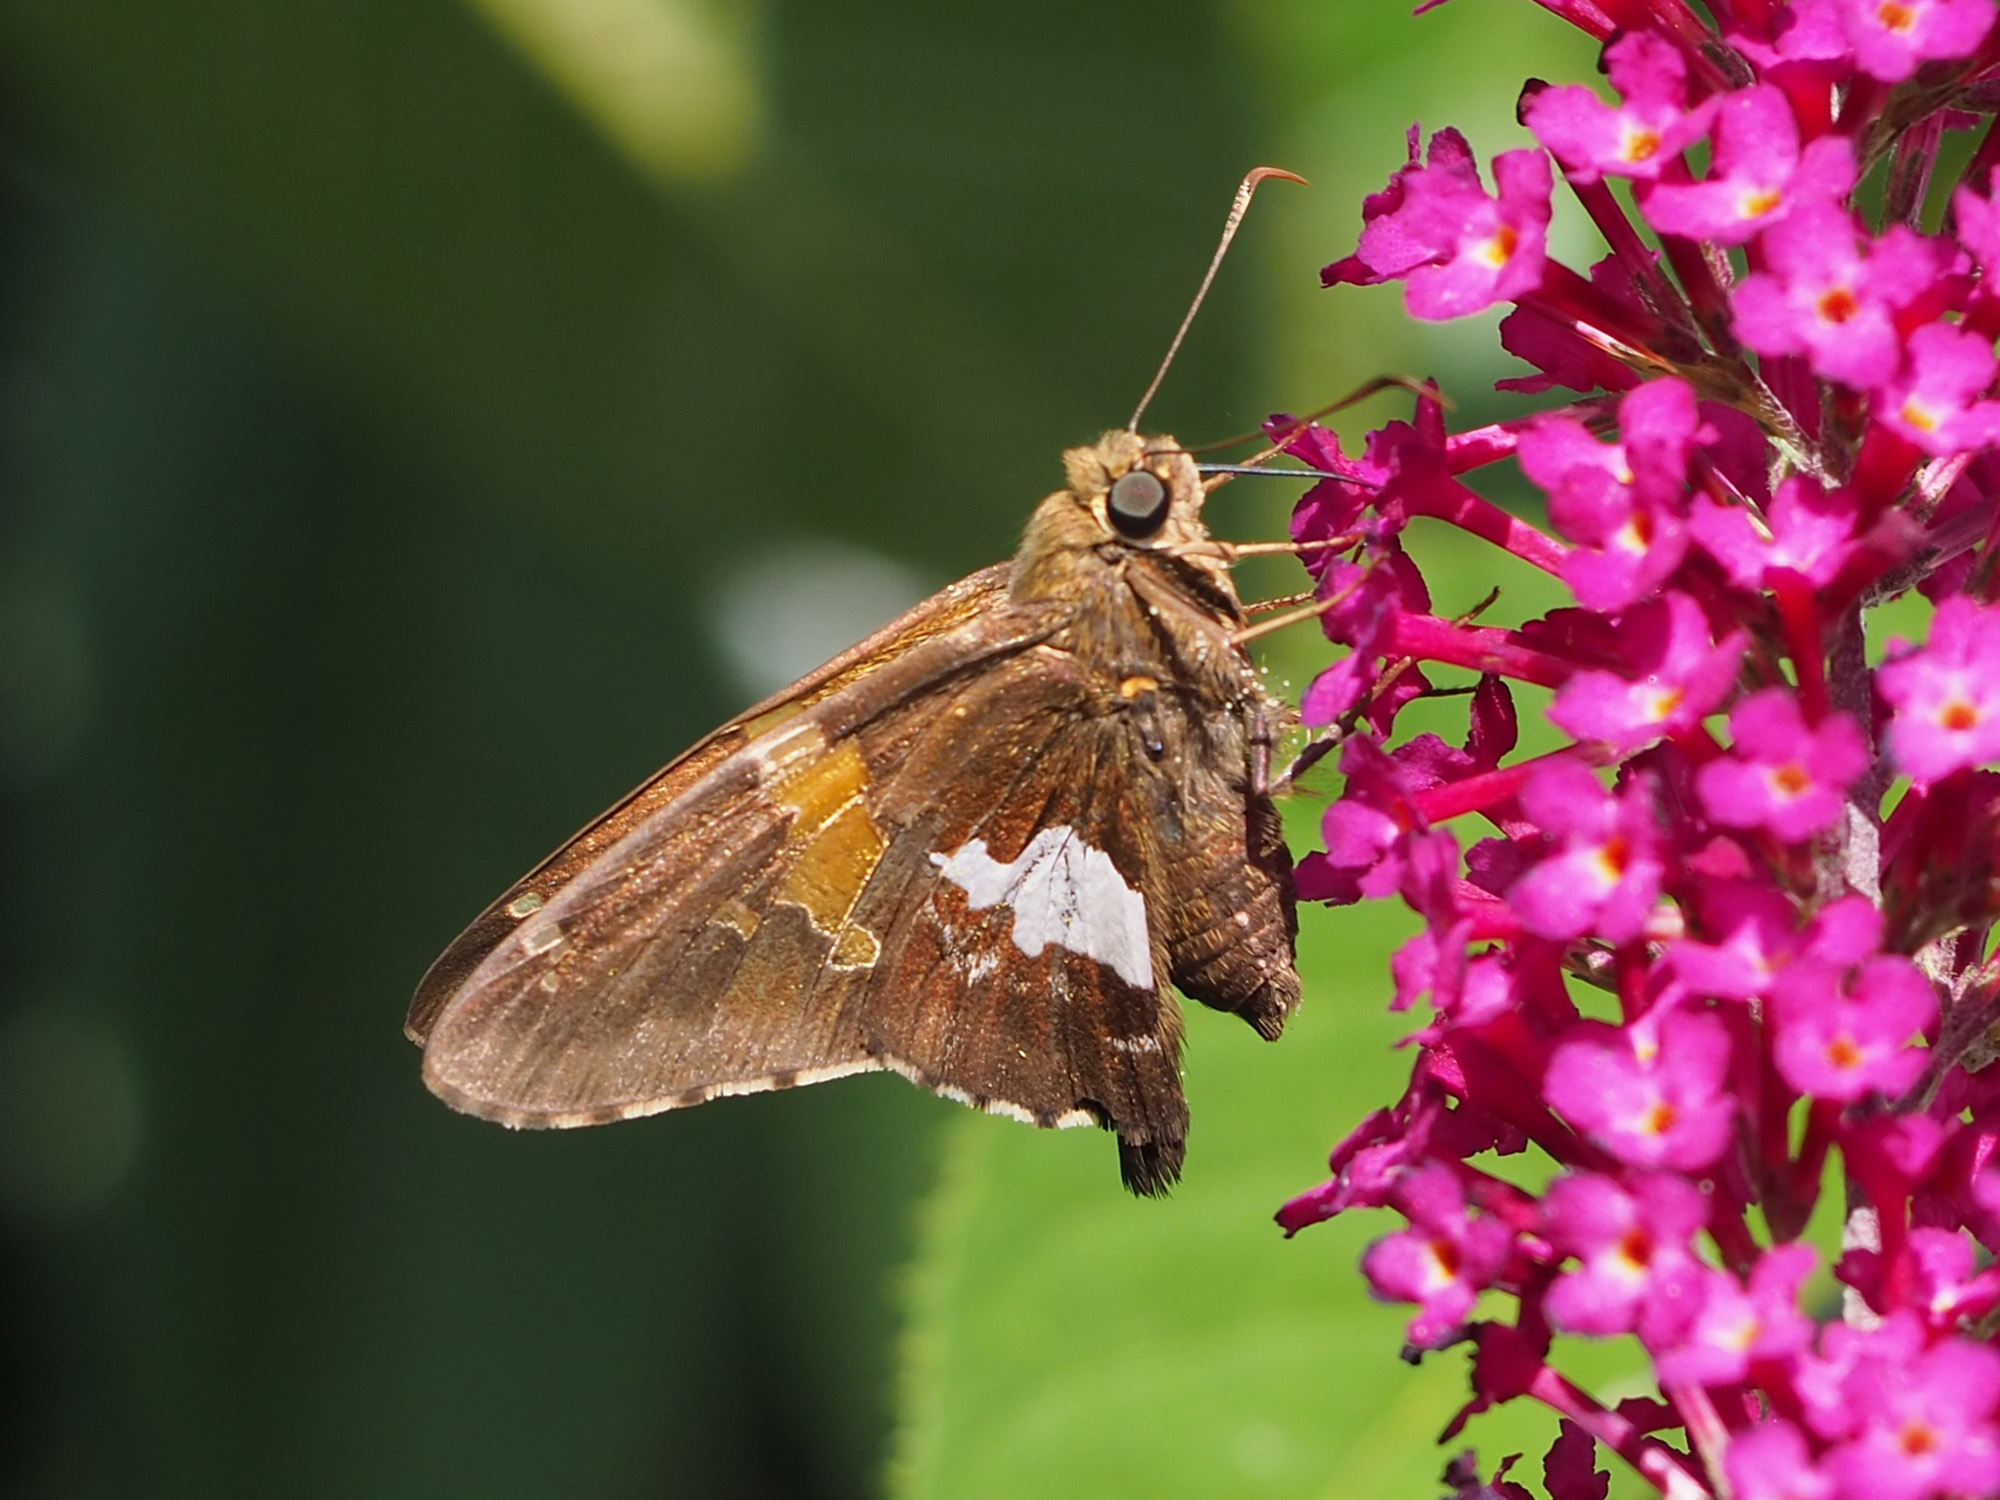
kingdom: Animalia
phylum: Arthropoda
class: Insecta
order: Lepidoptera
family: Hesperiidae
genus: Epargyreus
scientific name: Epargyreus clarus
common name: Silver-spotted skipper
